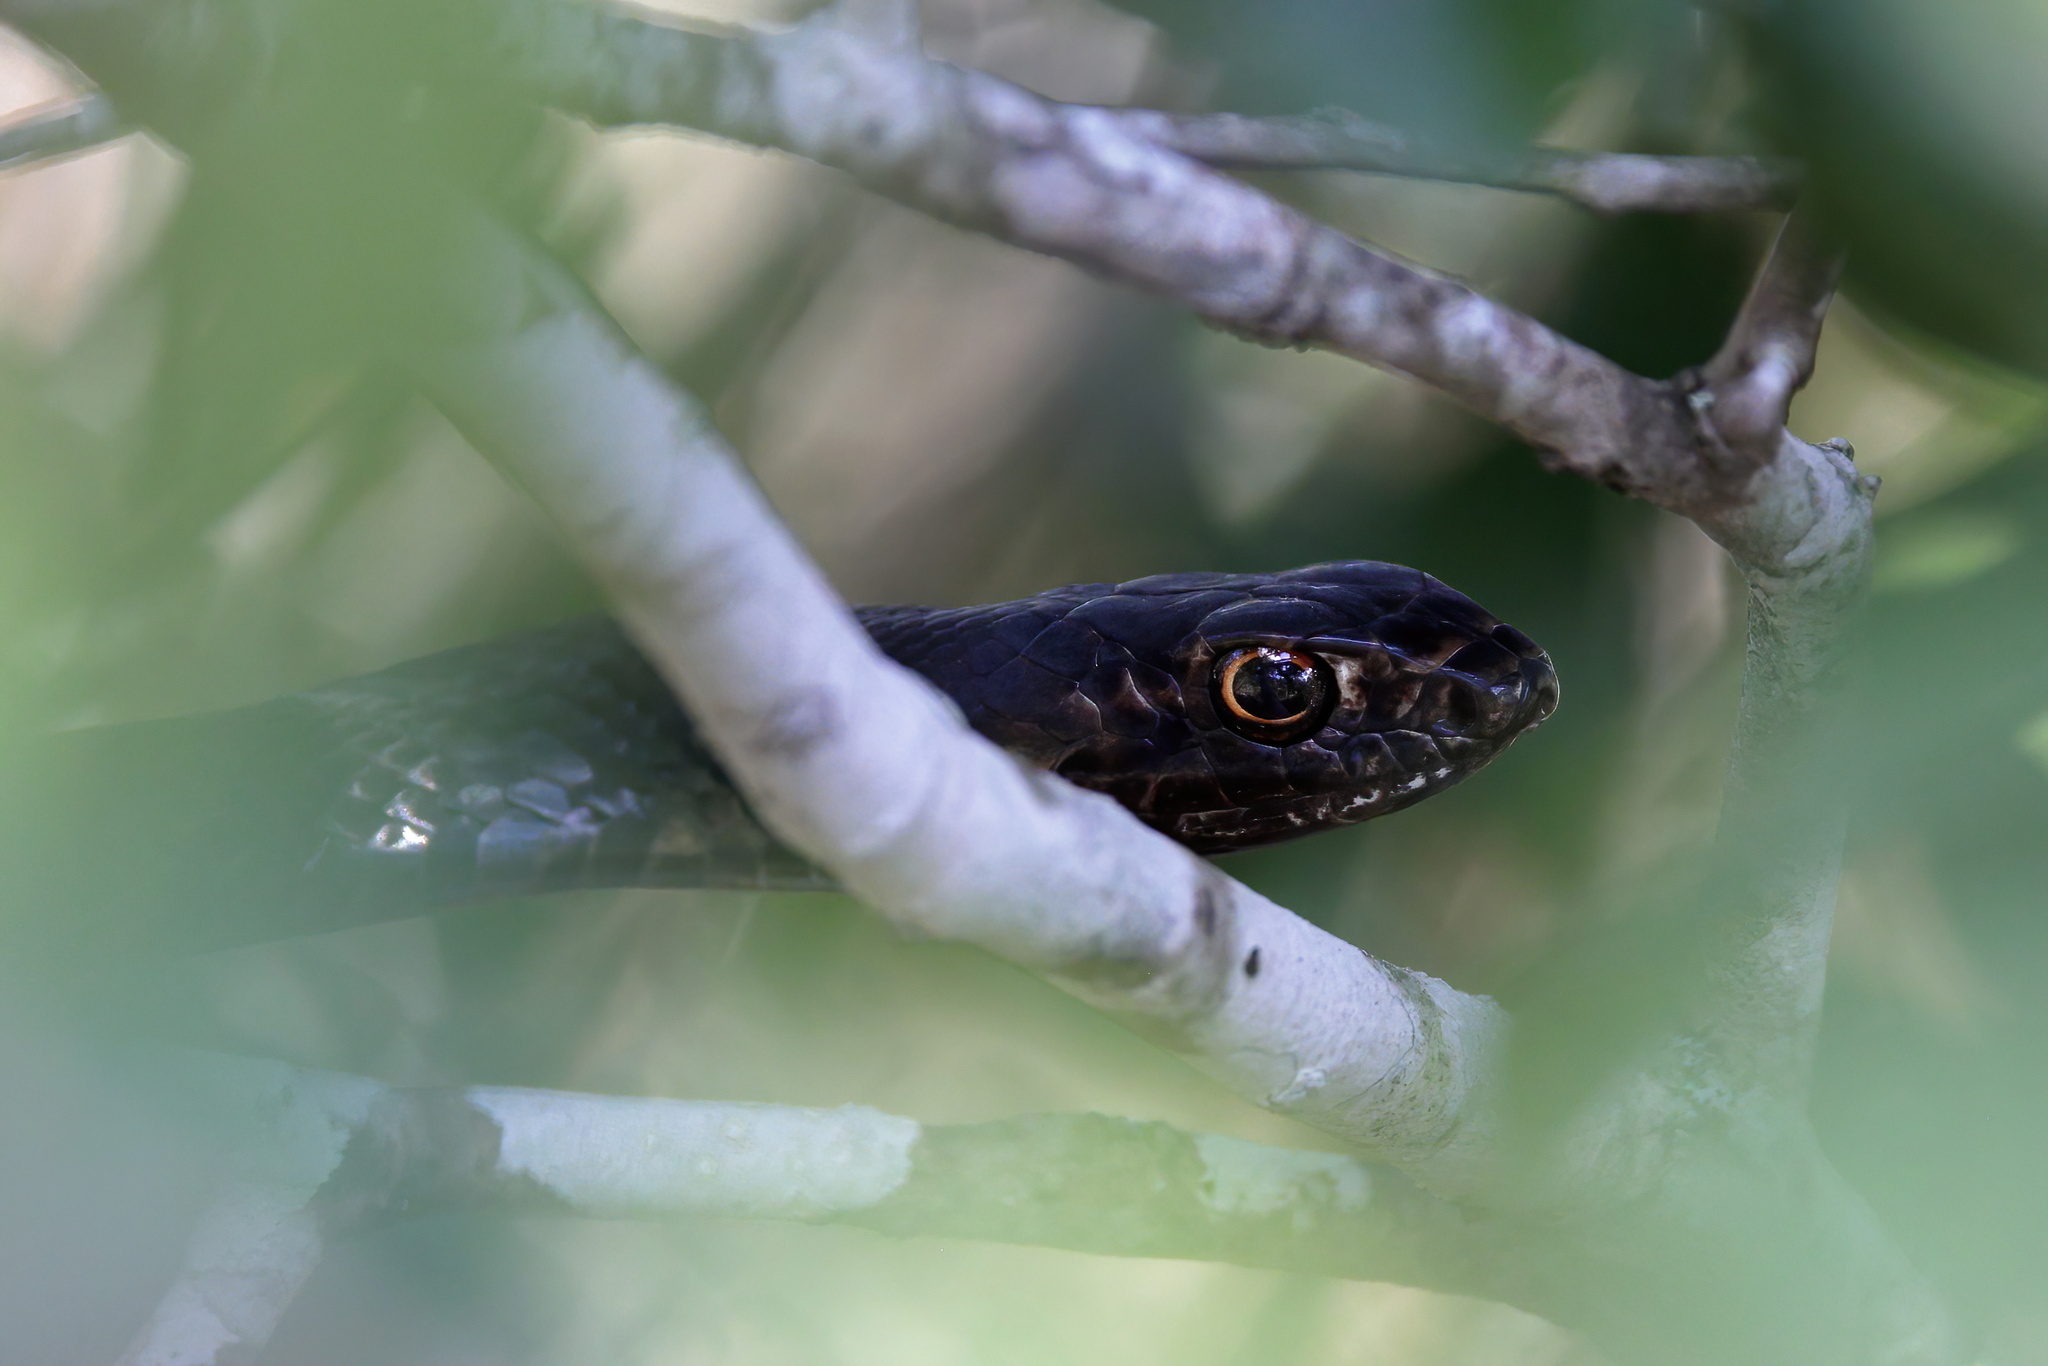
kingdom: Animalia
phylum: Chordata
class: Squamata
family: Colubridae
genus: Masticophis
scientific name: Masticophis flagellum
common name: Coachwhip
